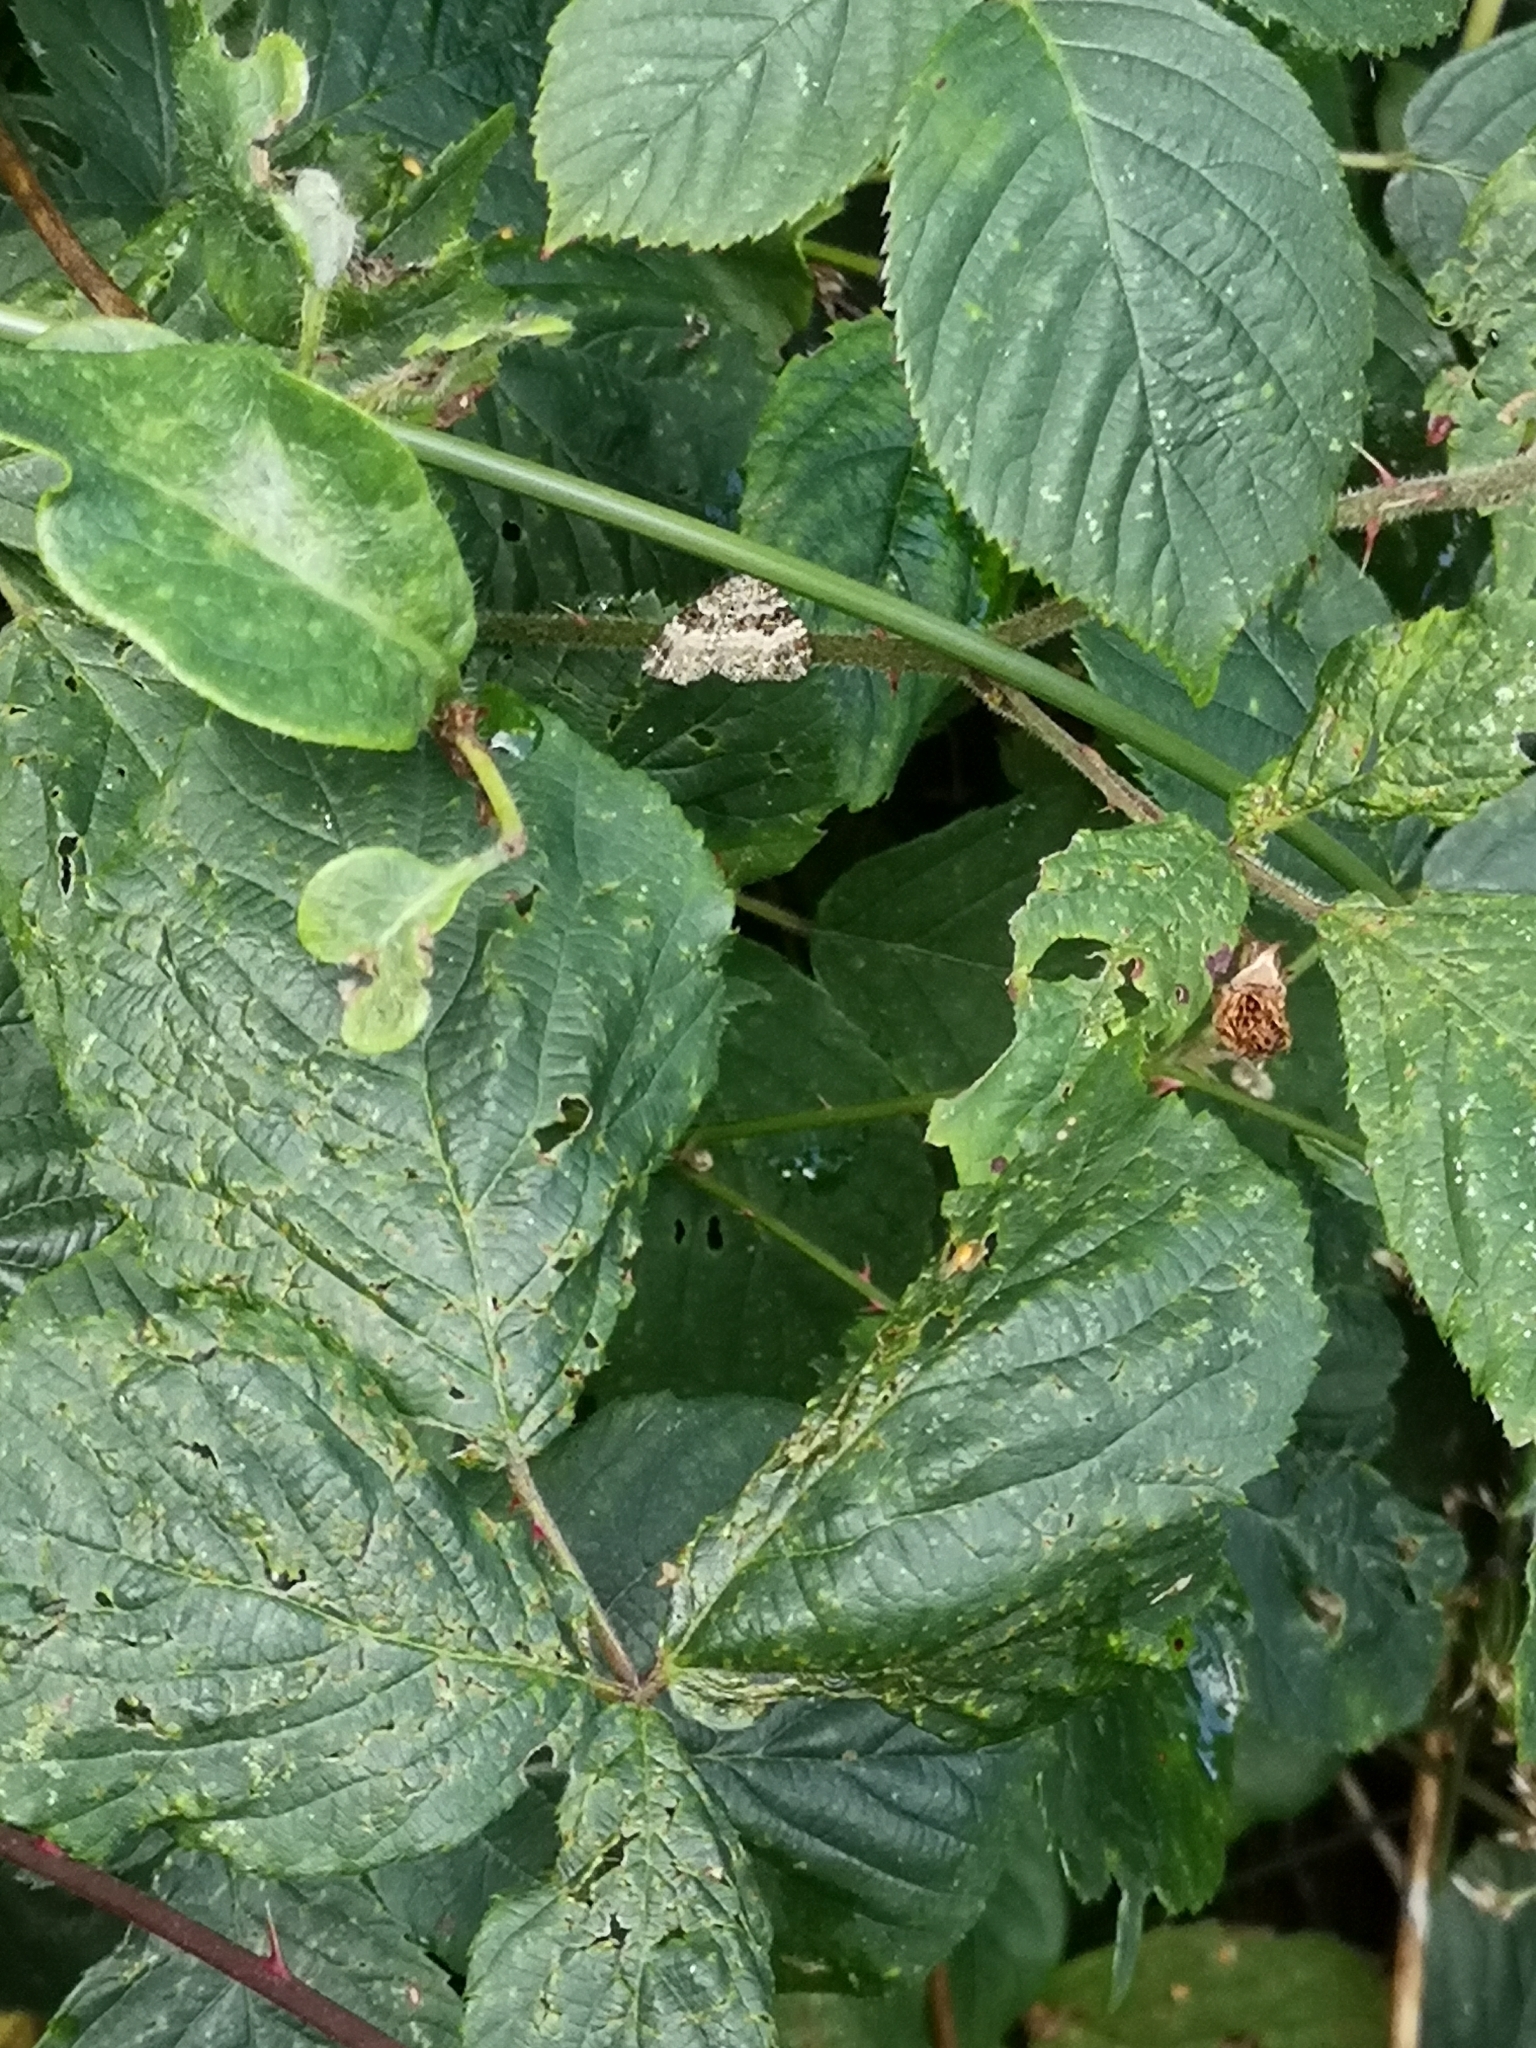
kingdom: Animalia
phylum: Arthropoda
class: Insecta
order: Lepidoptera
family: Geometridae
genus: Epirrhoe
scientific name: Epirrhoe alternata
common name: Common carpet
